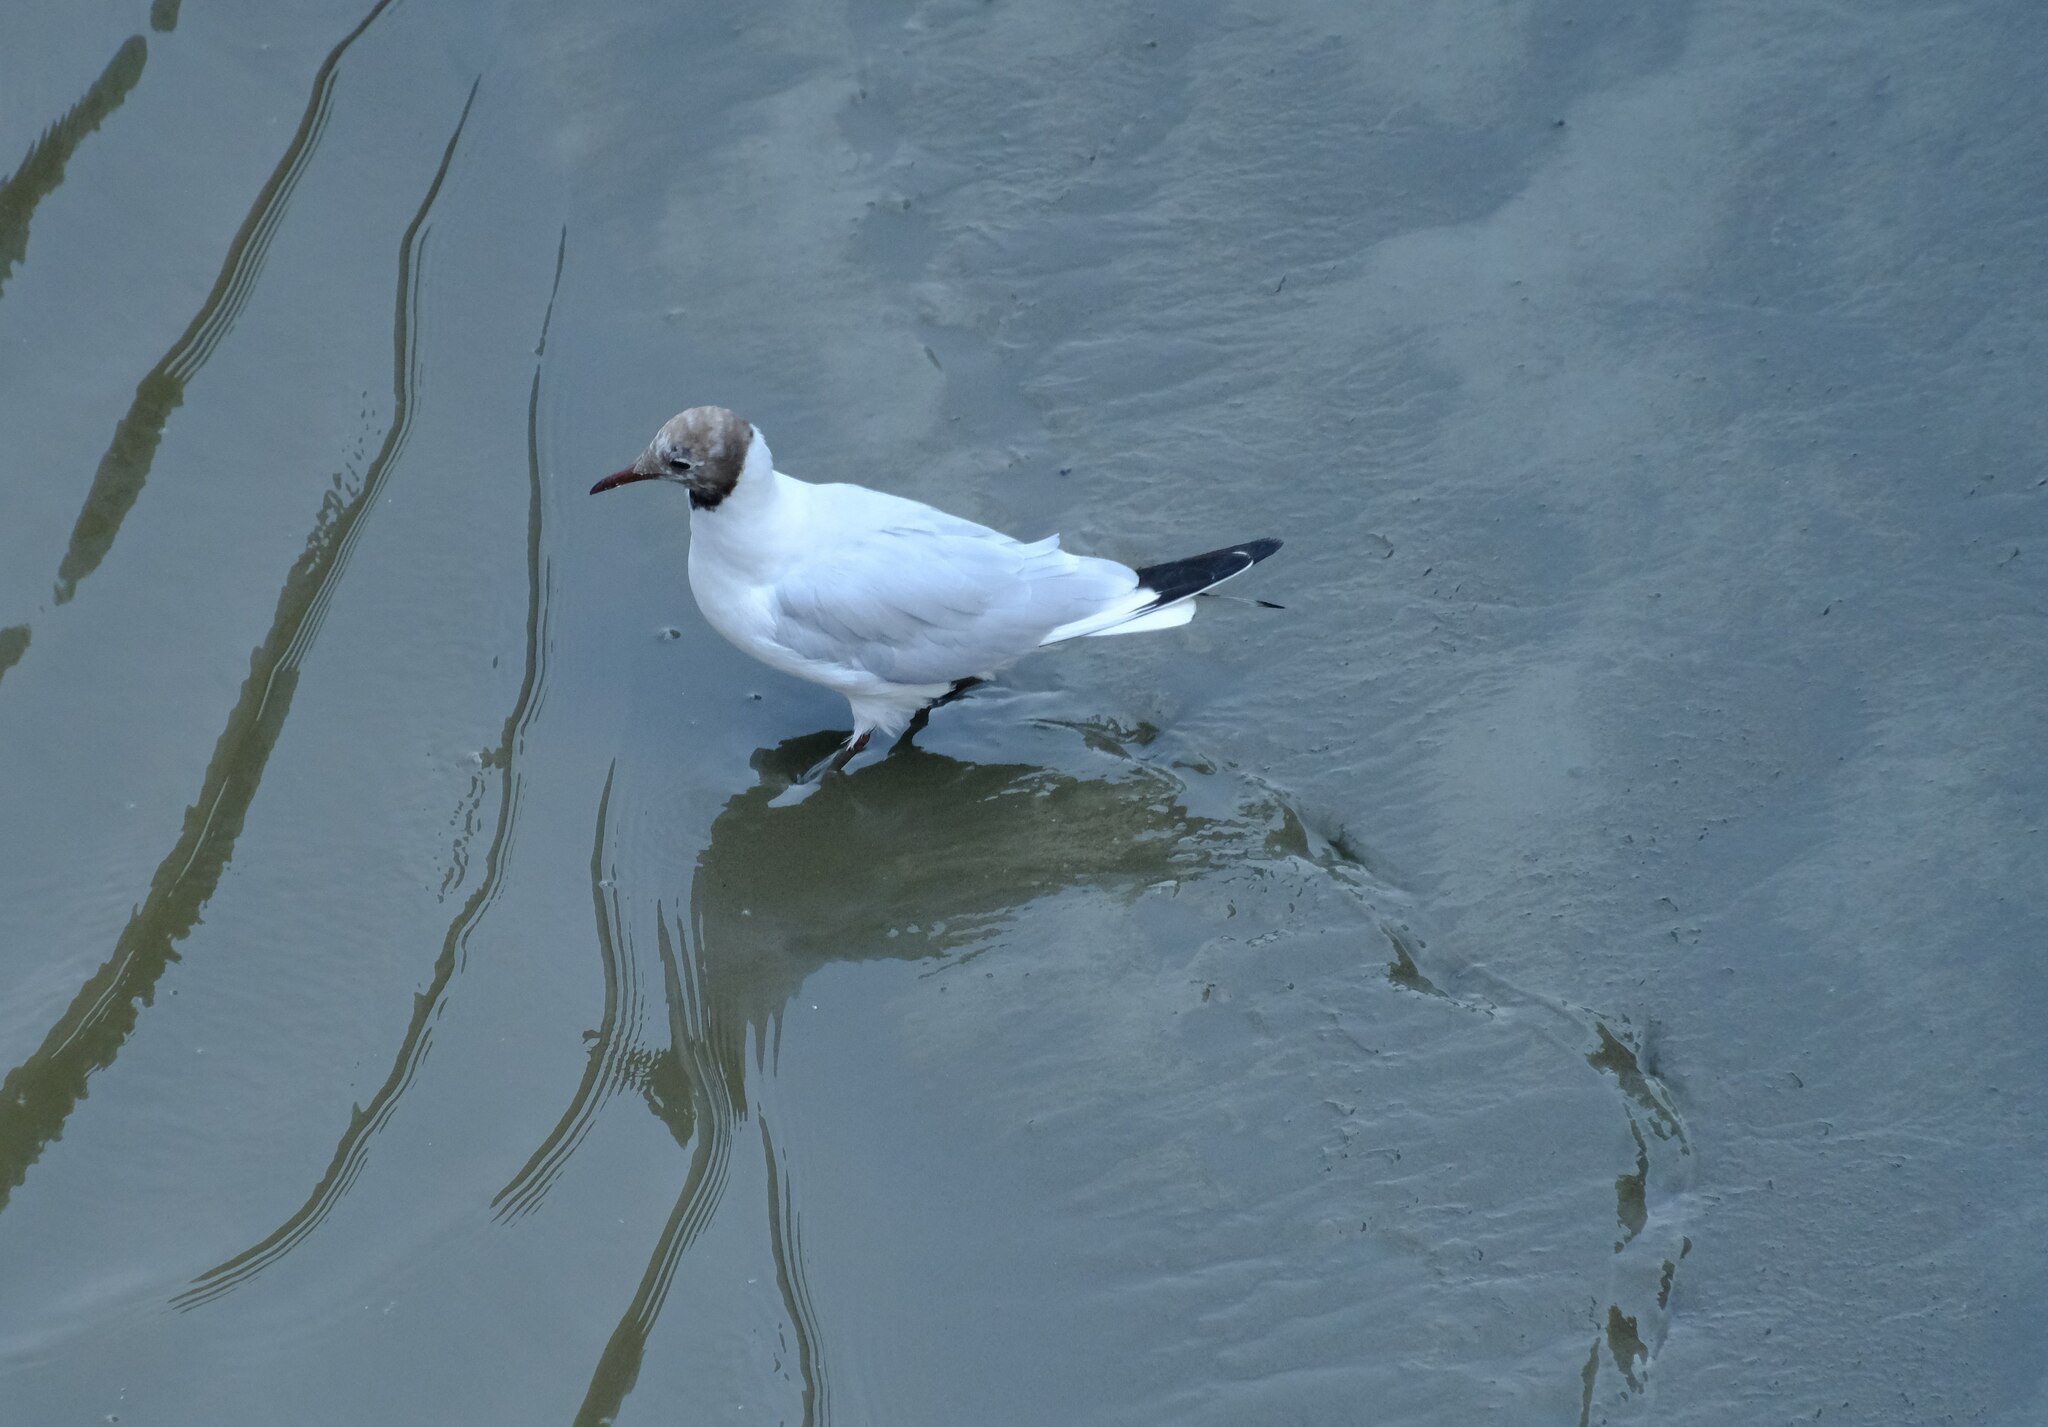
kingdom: Animalia
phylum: Chordata
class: Aves
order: Charadriiformes
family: Laridae
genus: Chroicocephalus
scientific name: Chroicocephalus ridibundus
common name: Black-headed gull
